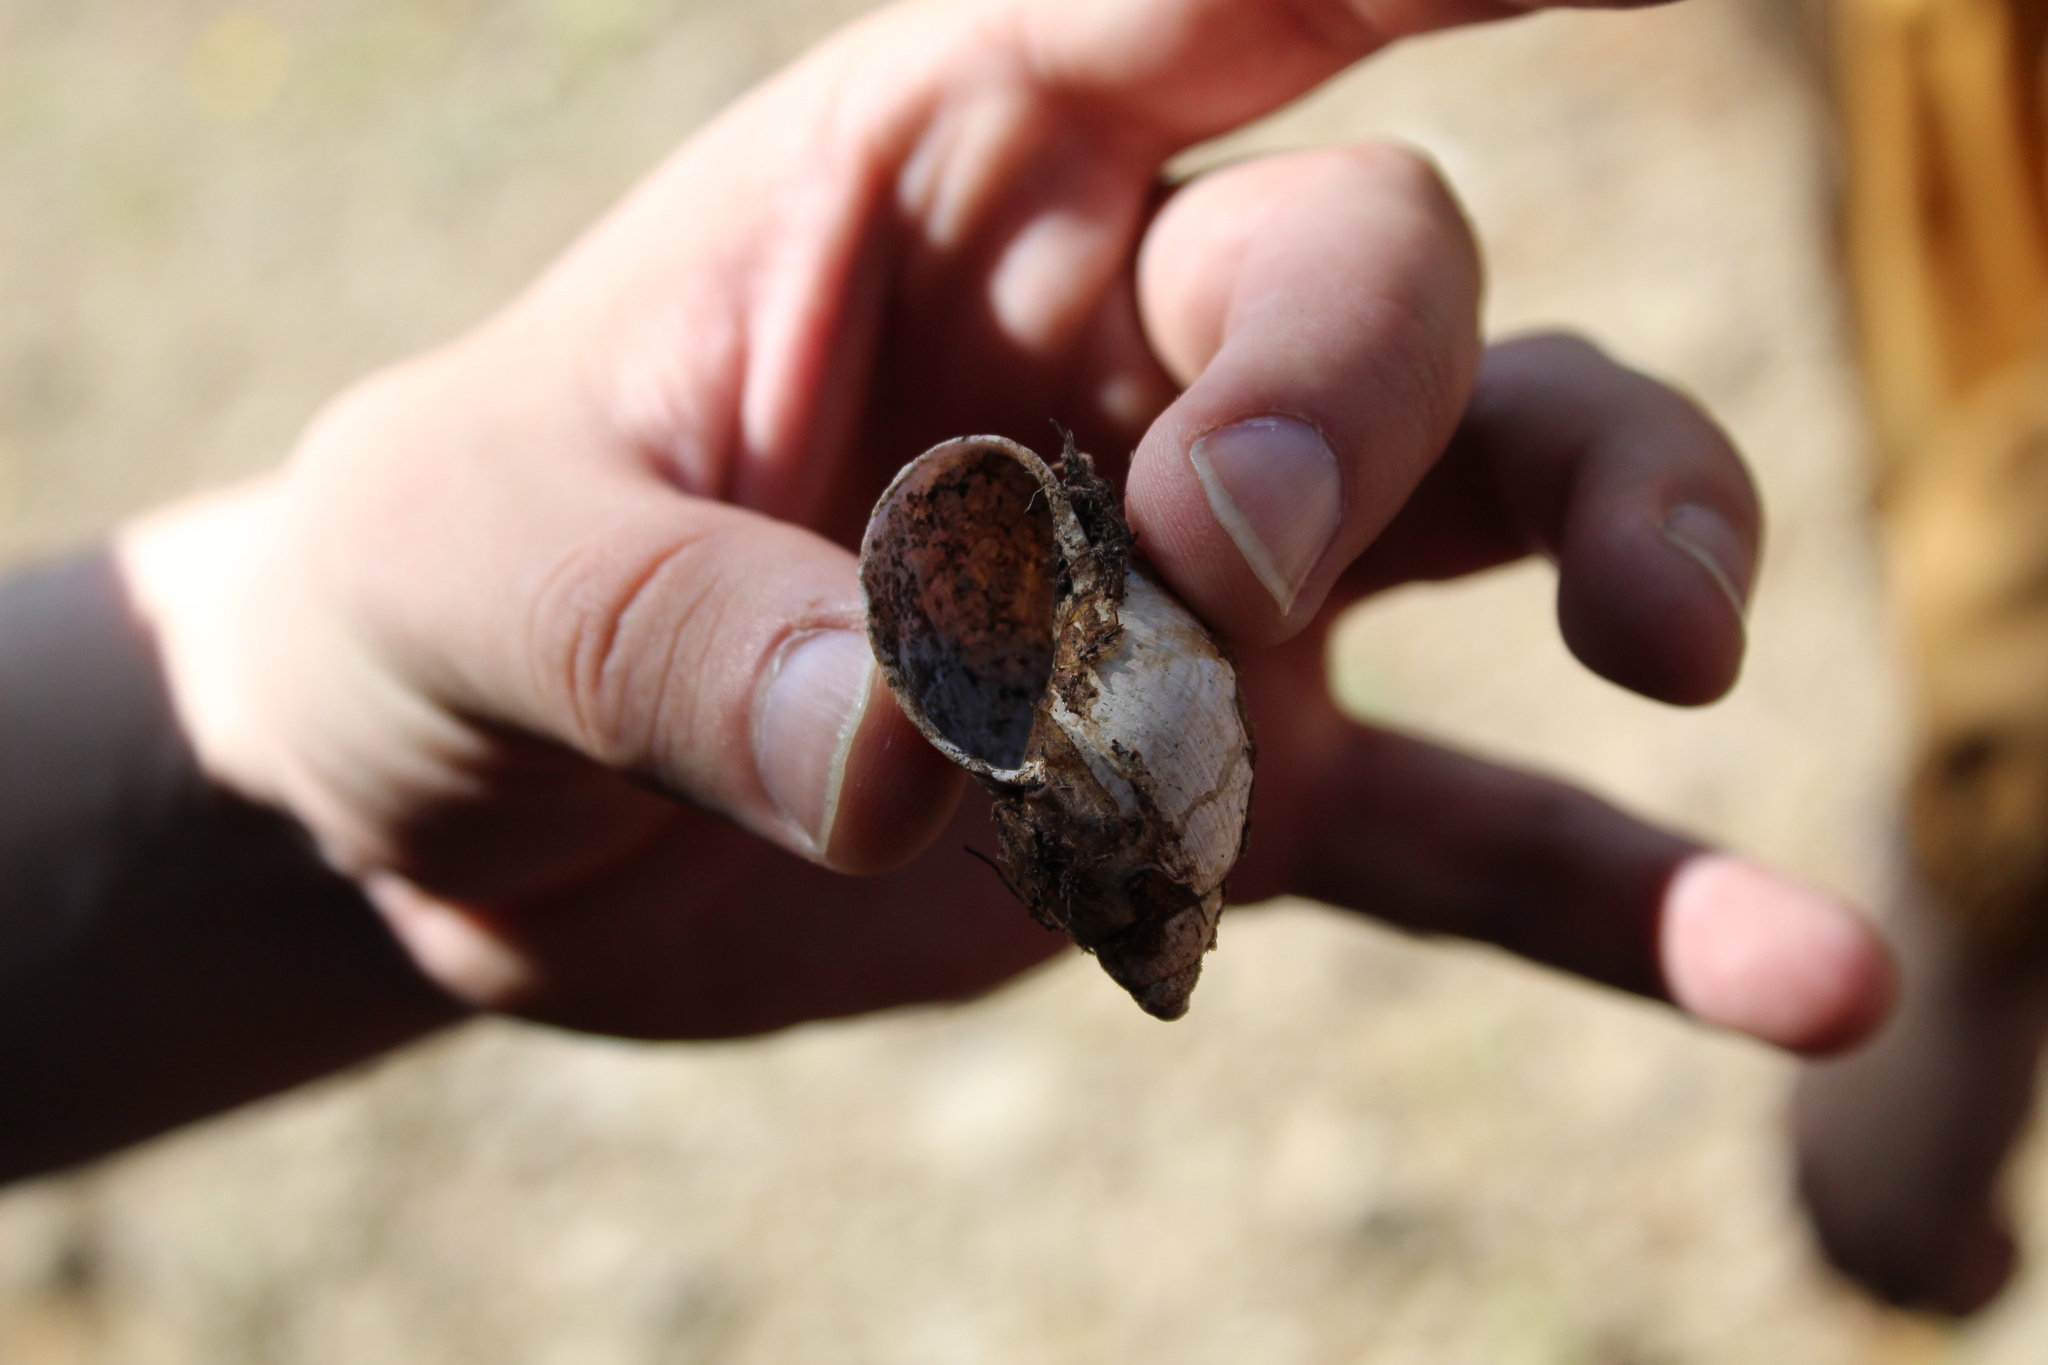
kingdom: Animalia
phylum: Mollusca
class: Gastropoda
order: Stylommatophora
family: Amphibulimidae
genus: Plekocheilus
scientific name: Plekocheilus
